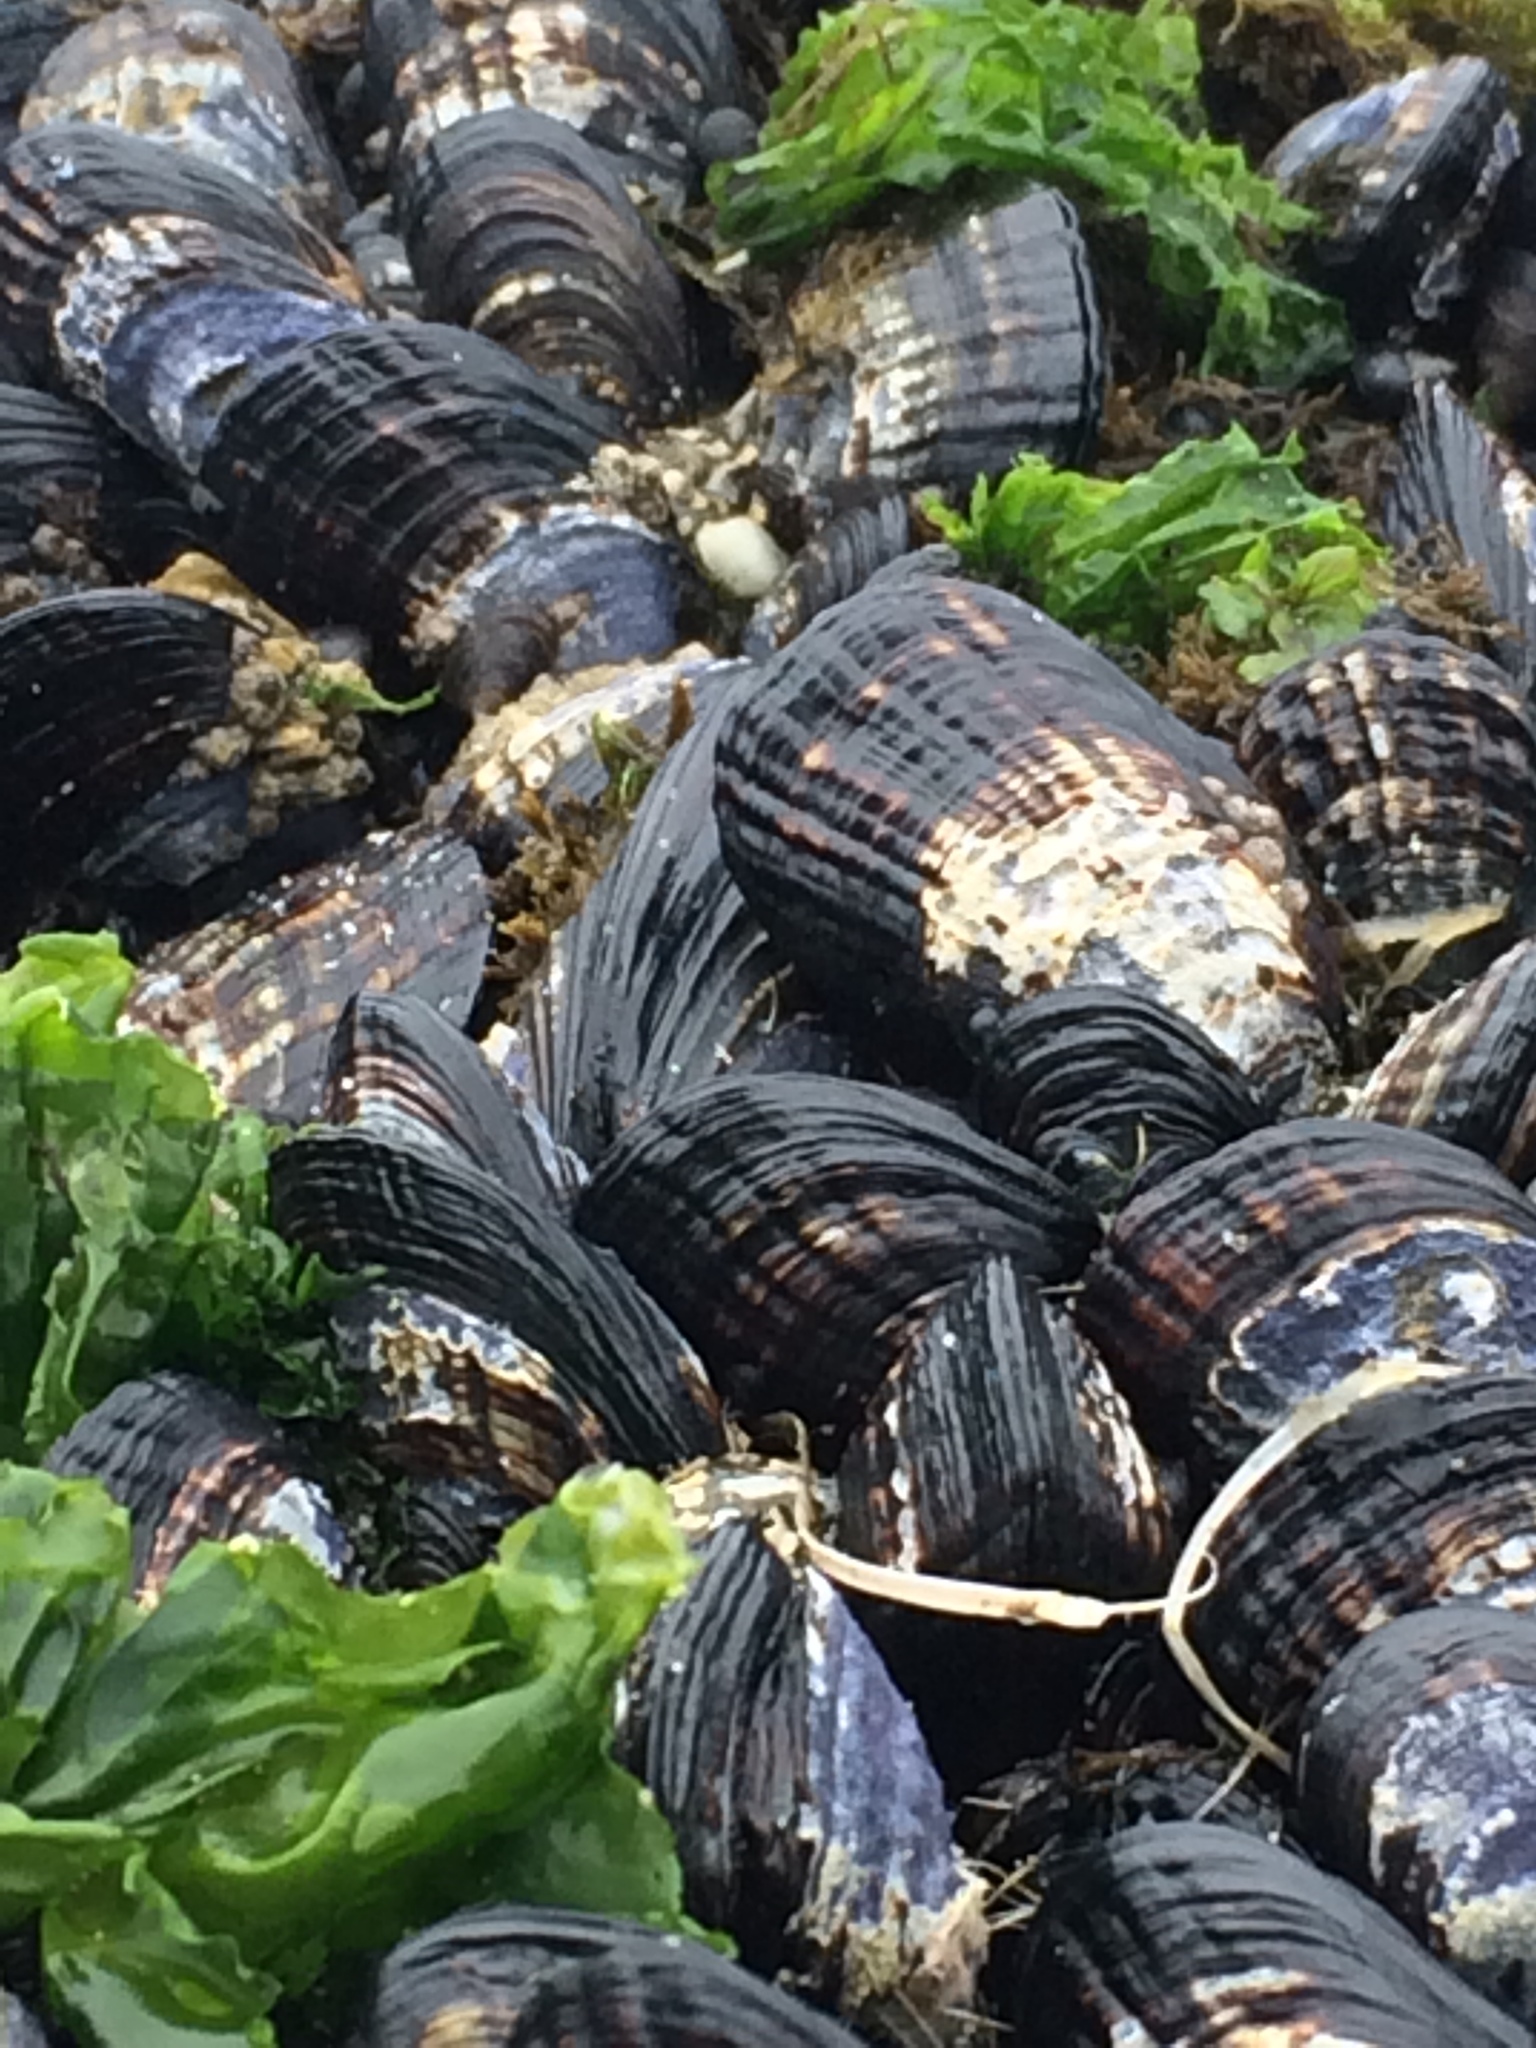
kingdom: Animalia
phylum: Mollusca
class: Bivalvia
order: Mytilida
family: Mytilidae
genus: Mytilus
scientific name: Mytilus californianus
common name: California mussel
